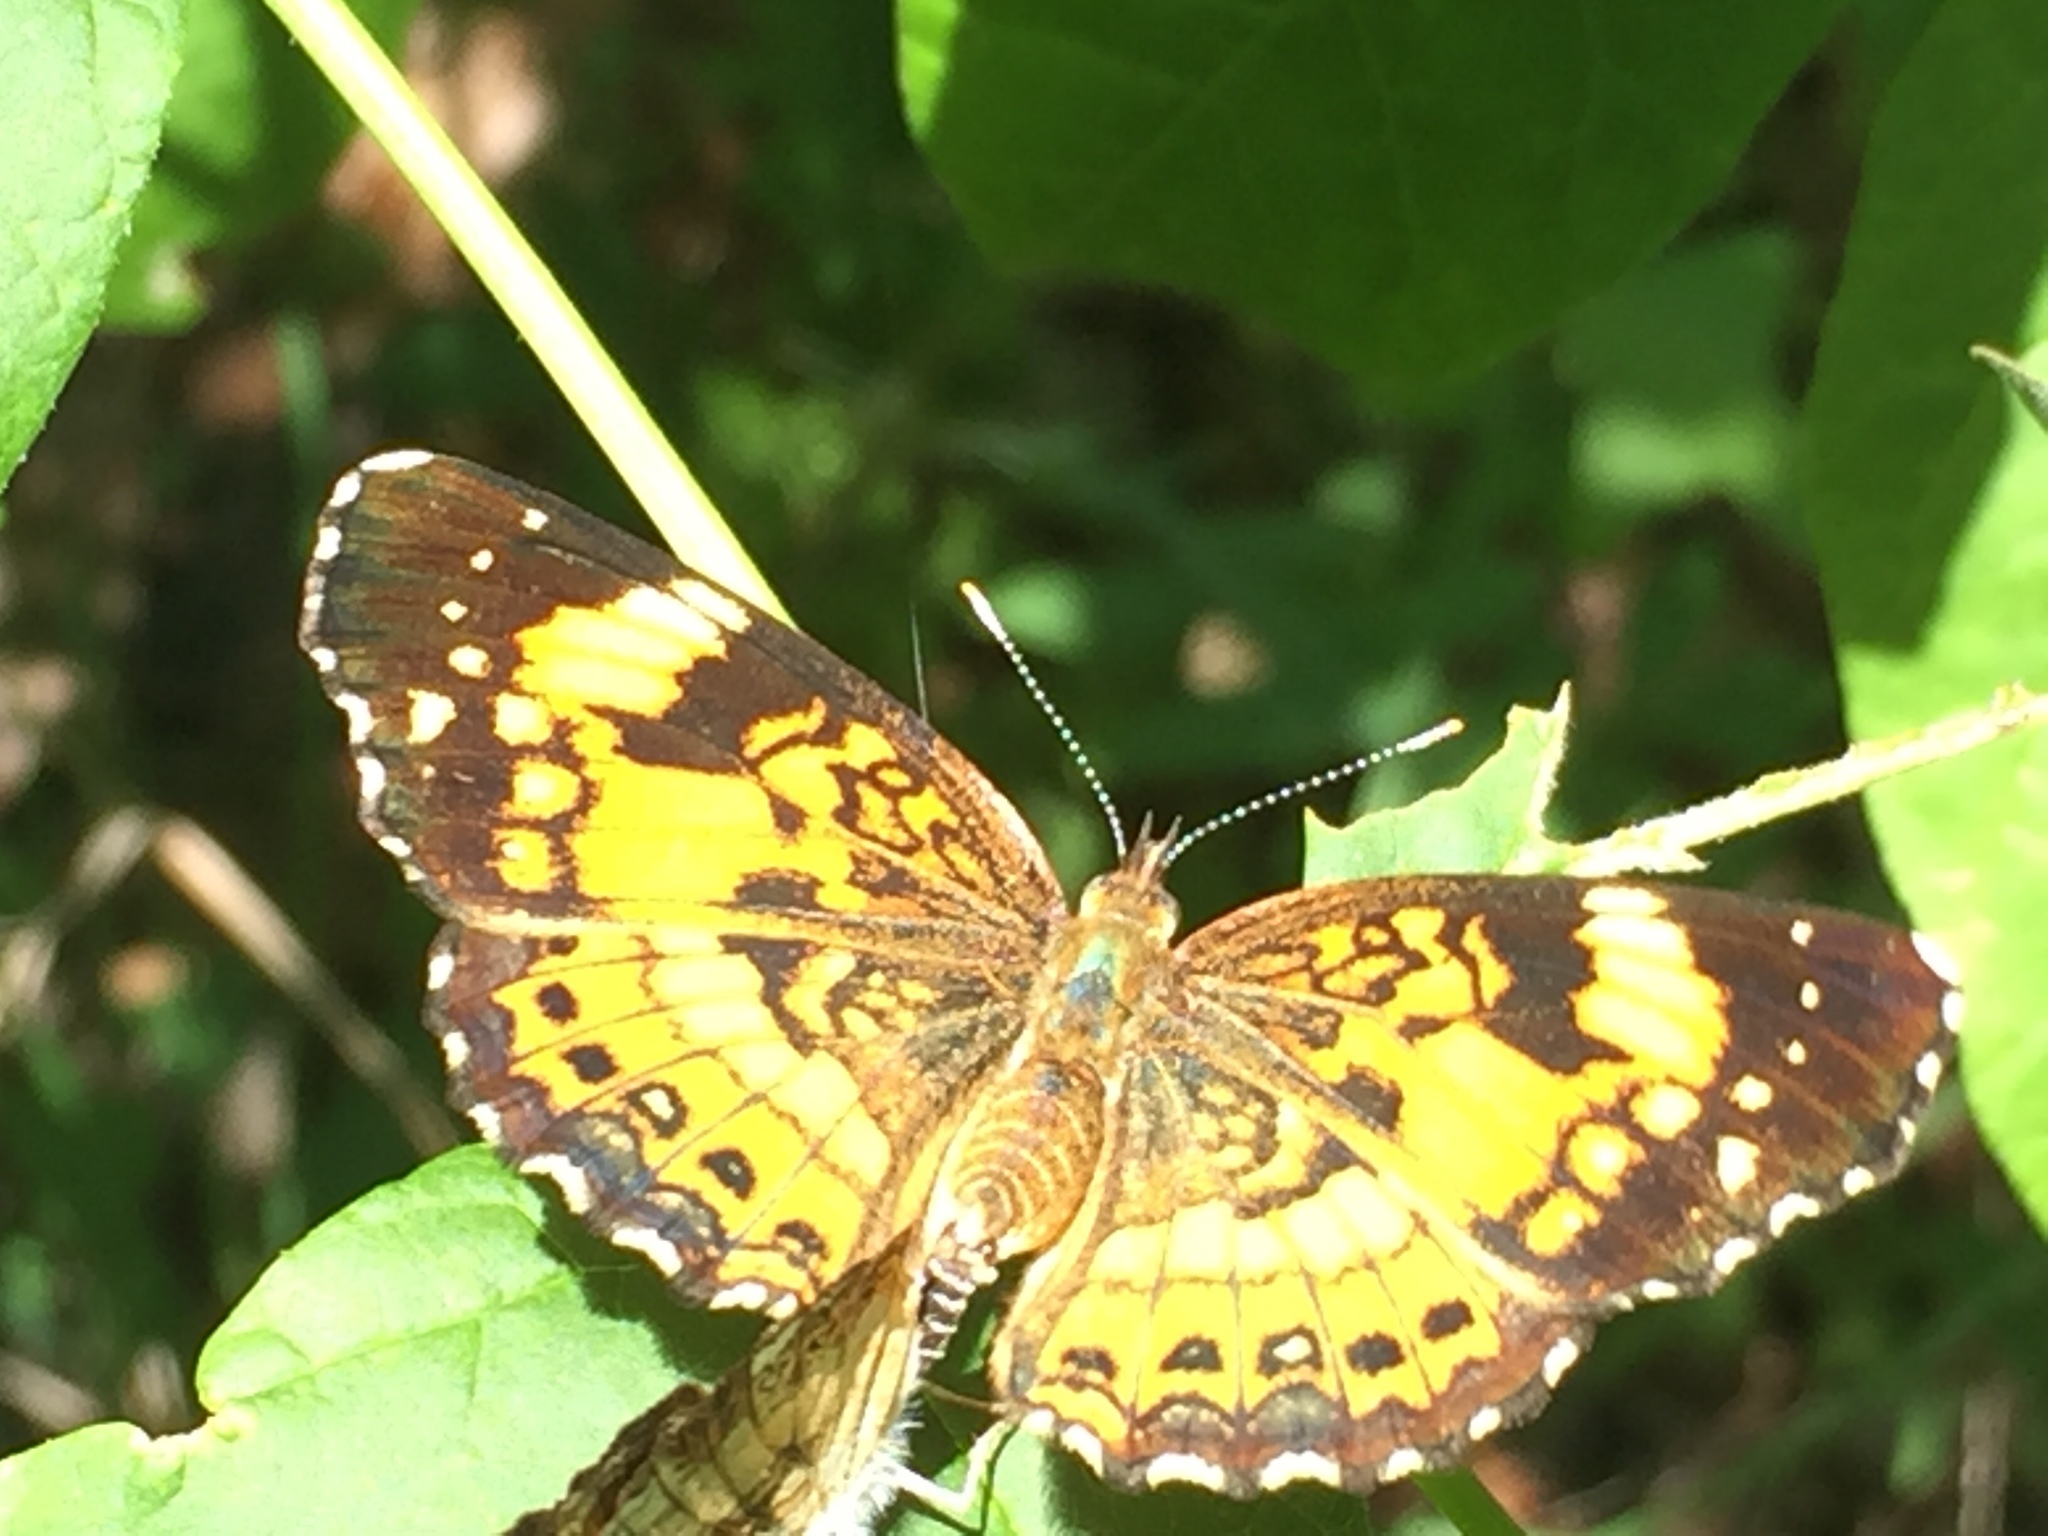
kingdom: Animalia
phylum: Arthropoda
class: Insecta
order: Lepidoptera
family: Nymphalidae
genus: Chlosyne
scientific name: Chlosyne nycteis
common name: Silvery checkerspot
